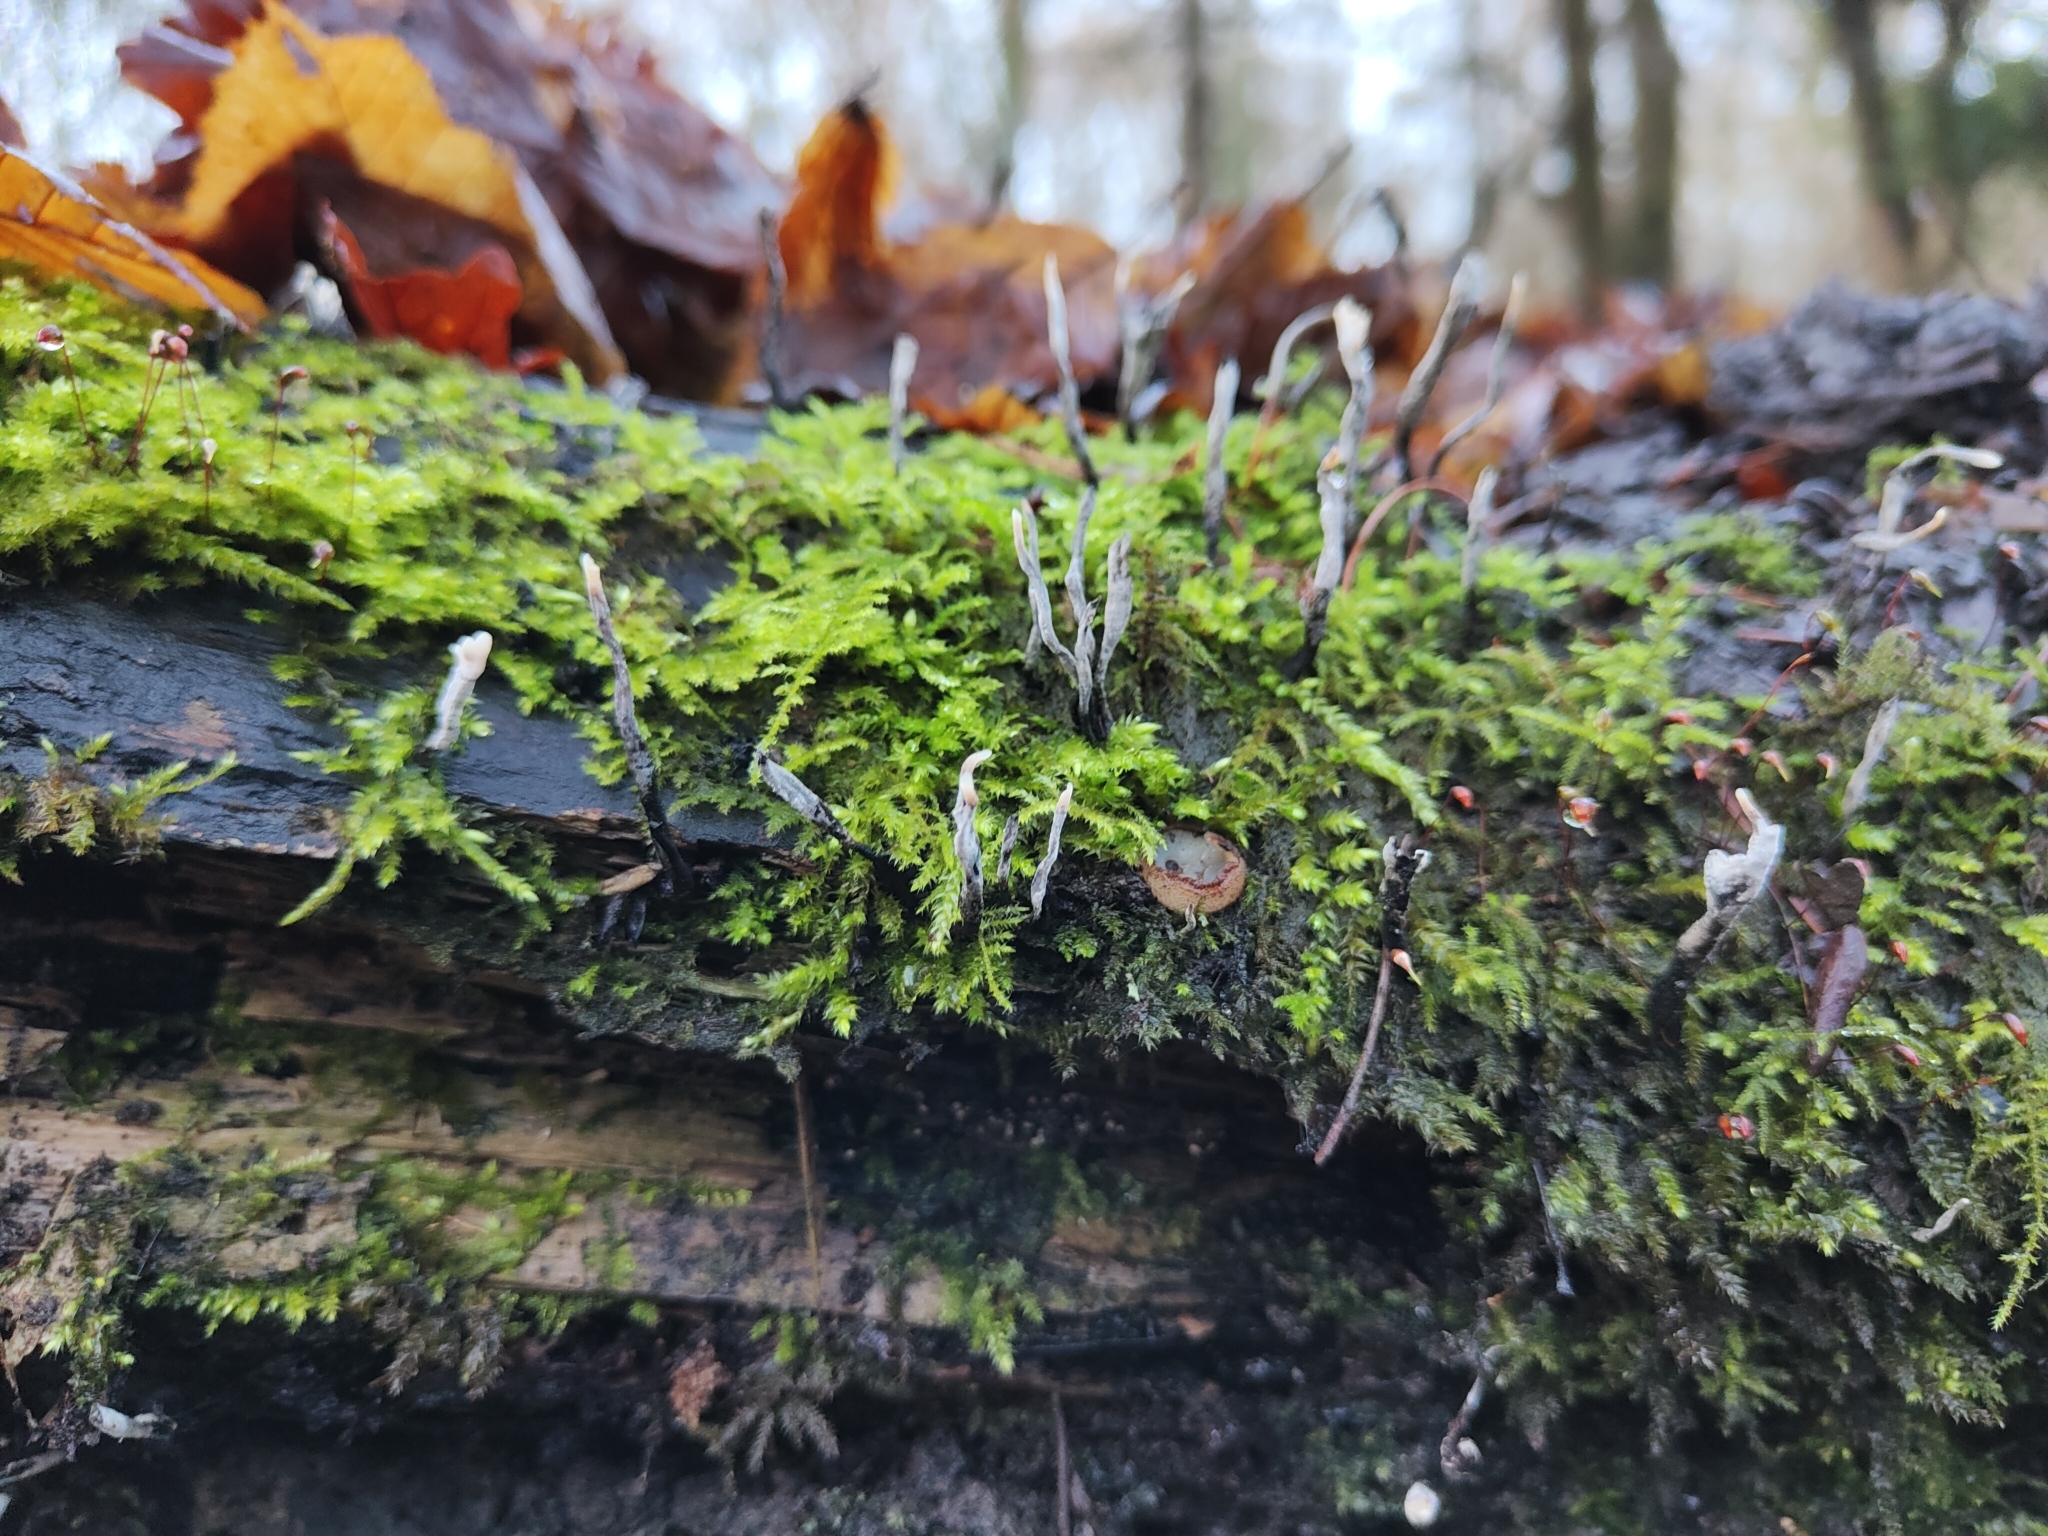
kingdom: Fungi
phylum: Ascomycota
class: Sordariomycetes
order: Xylariales
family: Xylariaceae
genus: Xylaria
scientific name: Xylaria hypoxylon
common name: Candle-snuff fungus
